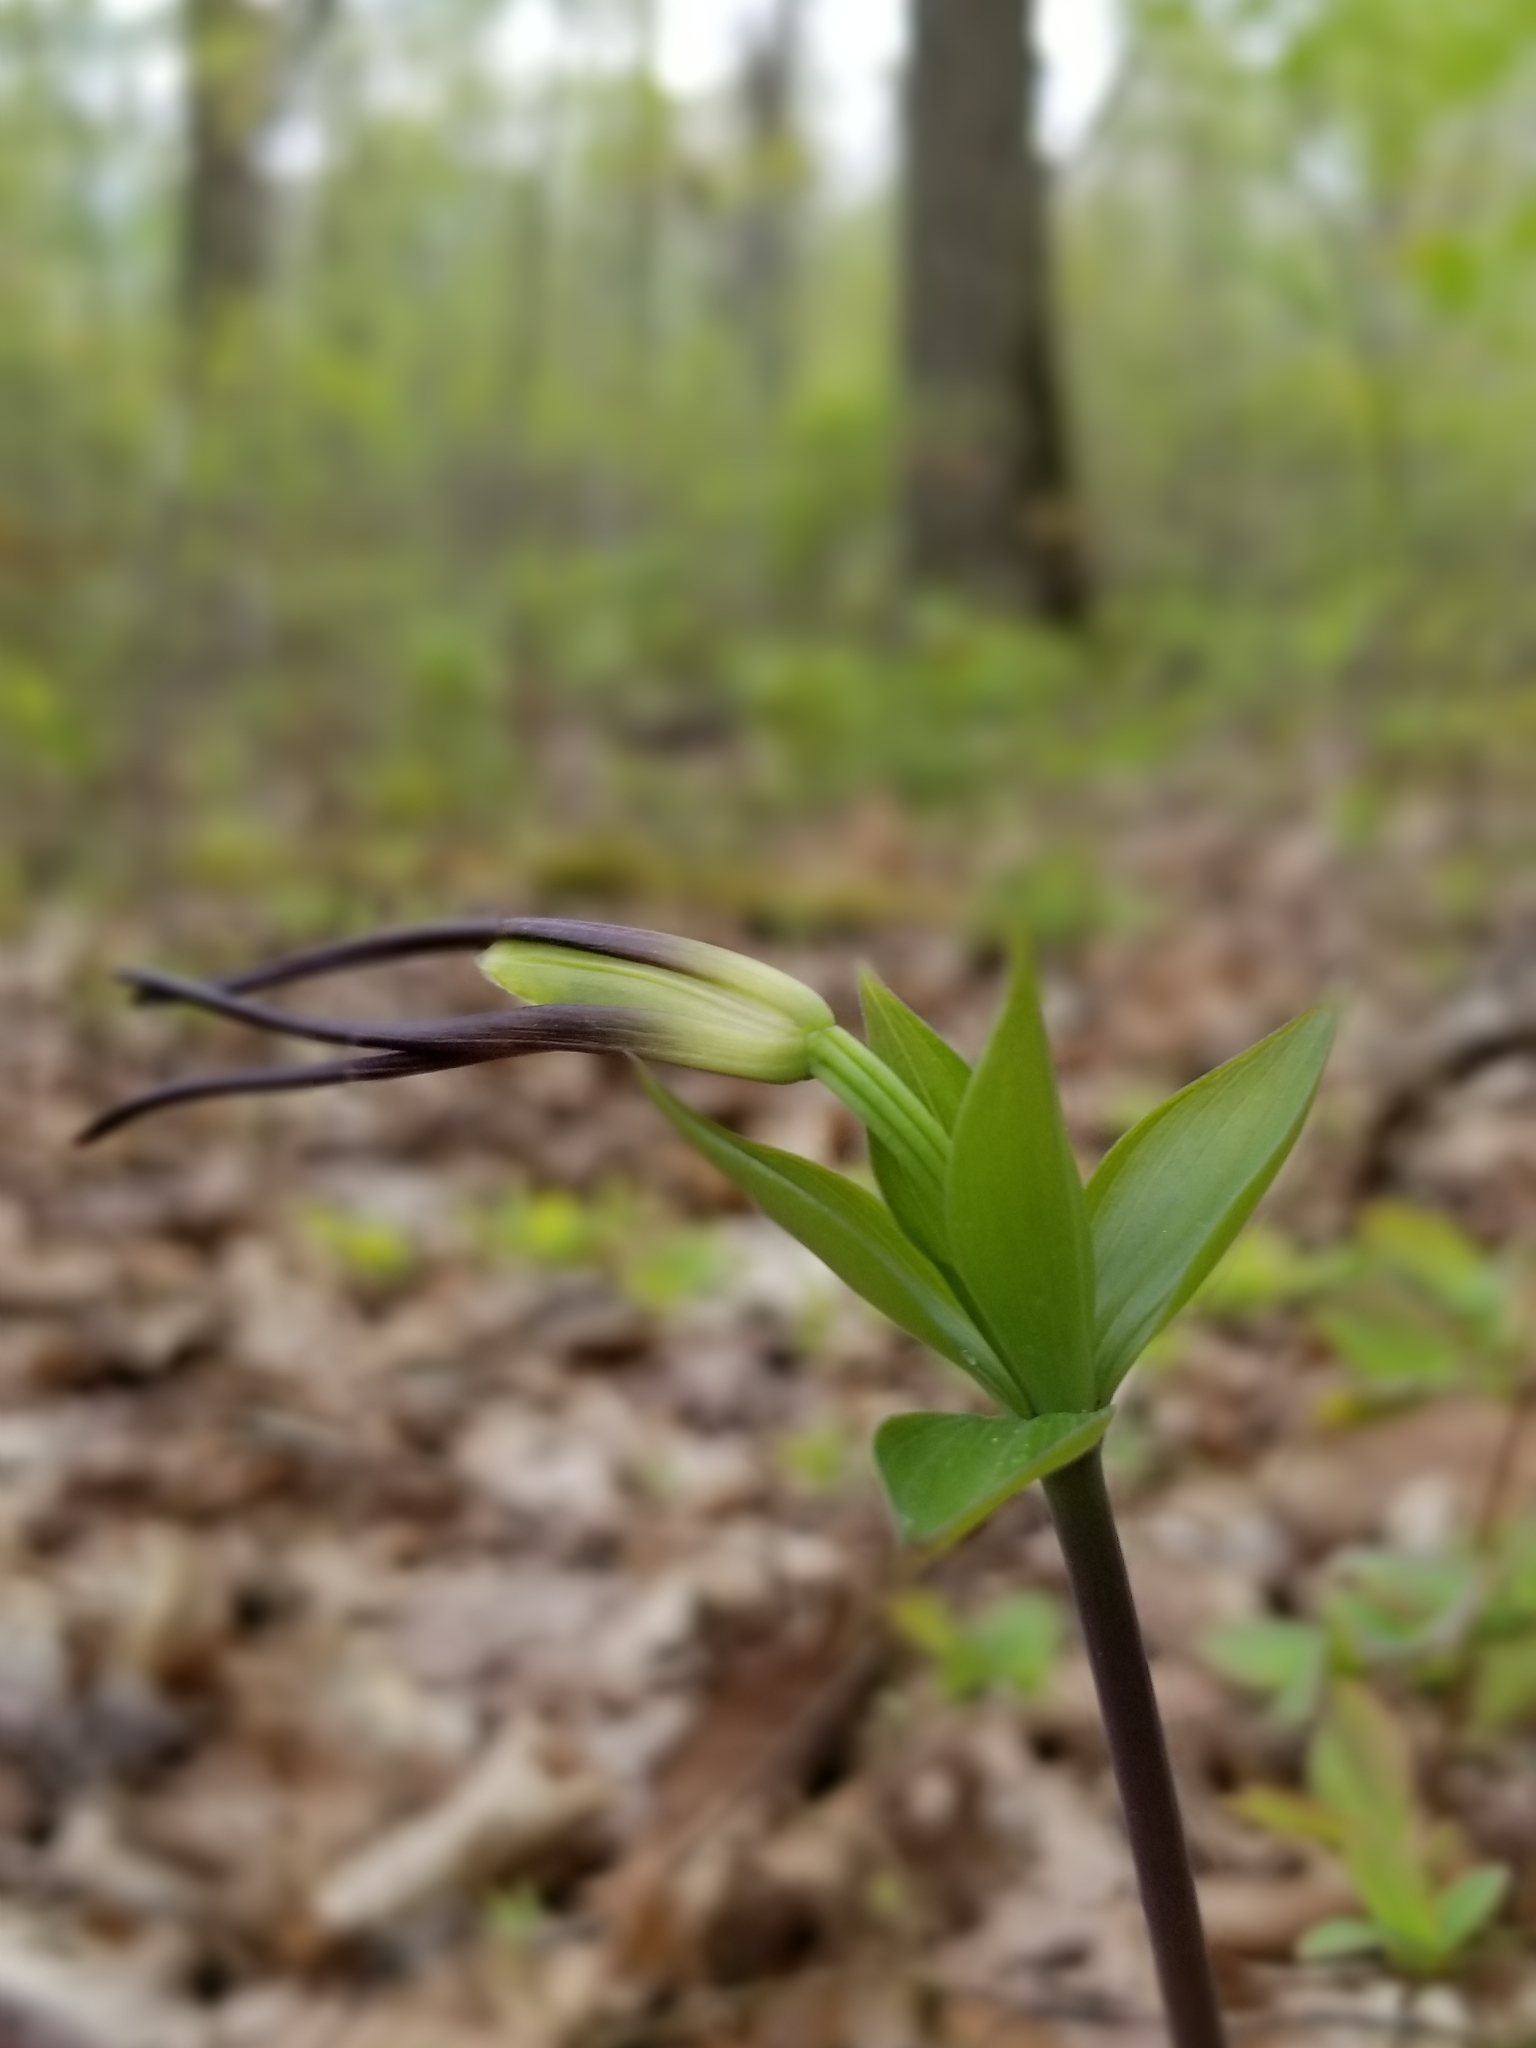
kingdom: Plantae
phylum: Tracheophyta
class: Liliopsida
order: Asparagales
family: Orchidaceae
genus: Isotria
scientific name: Isotria verticillata
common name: Large whorled pogonia
